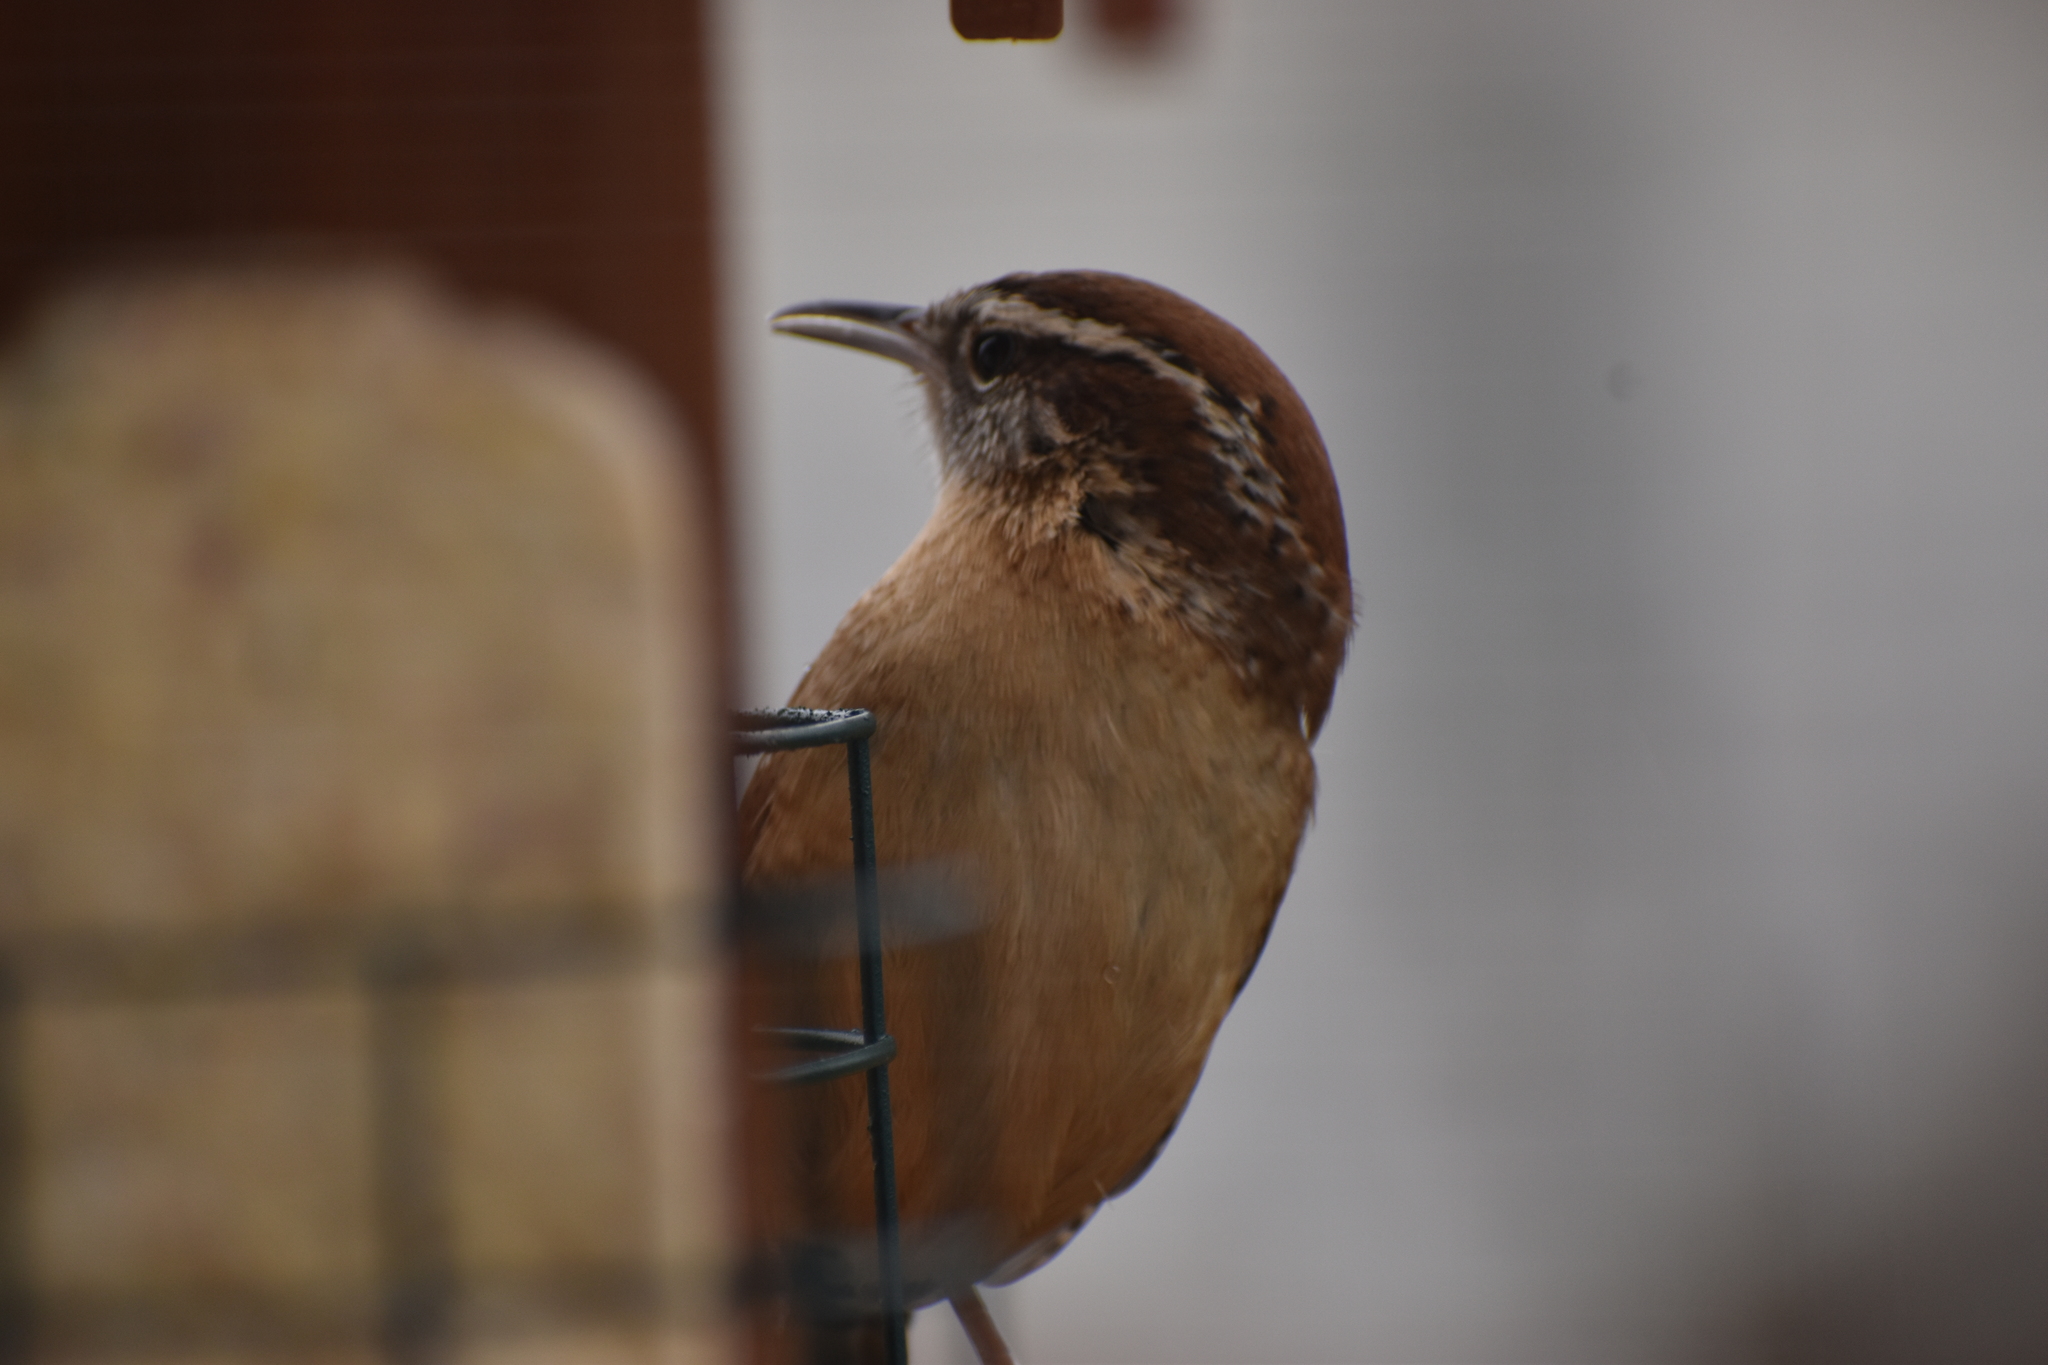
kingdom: Animalia
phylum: Chordata
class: Aves
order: Passeriformes
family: Troglodytidae
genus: Thryothorus
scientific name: Thryothorus ludovicianus
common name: Carolina wren
